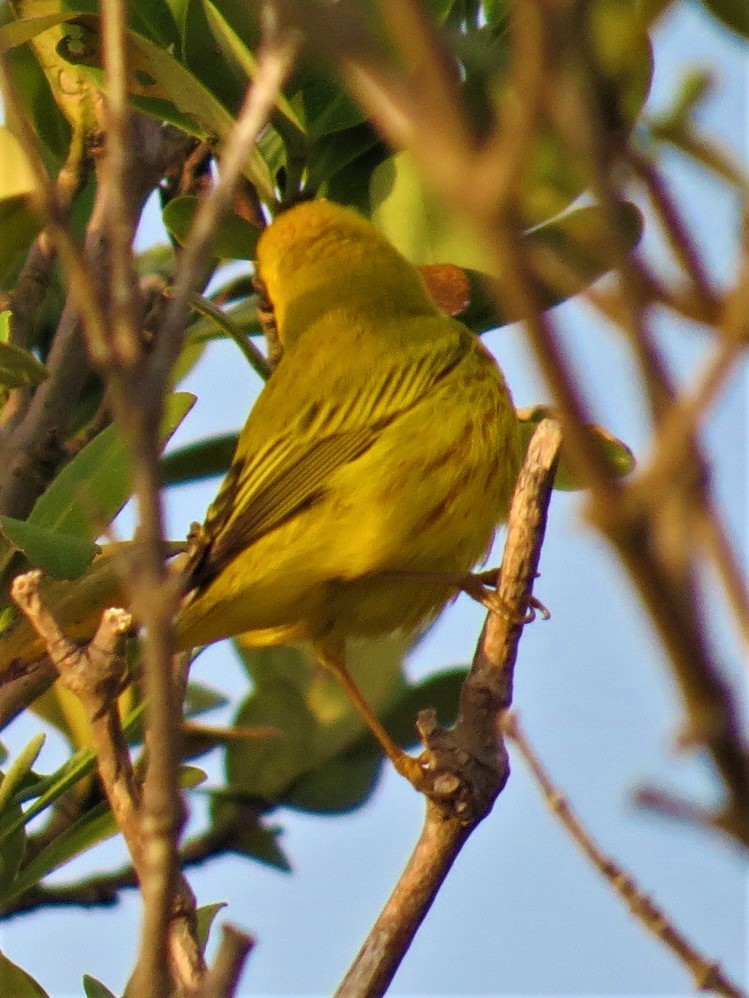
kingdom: Animalia
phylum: Chordata
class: Aves
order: Passeriformes
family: Parulidae
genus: Setophaga
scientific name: Setophaga petechia
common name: Yellow warbler
